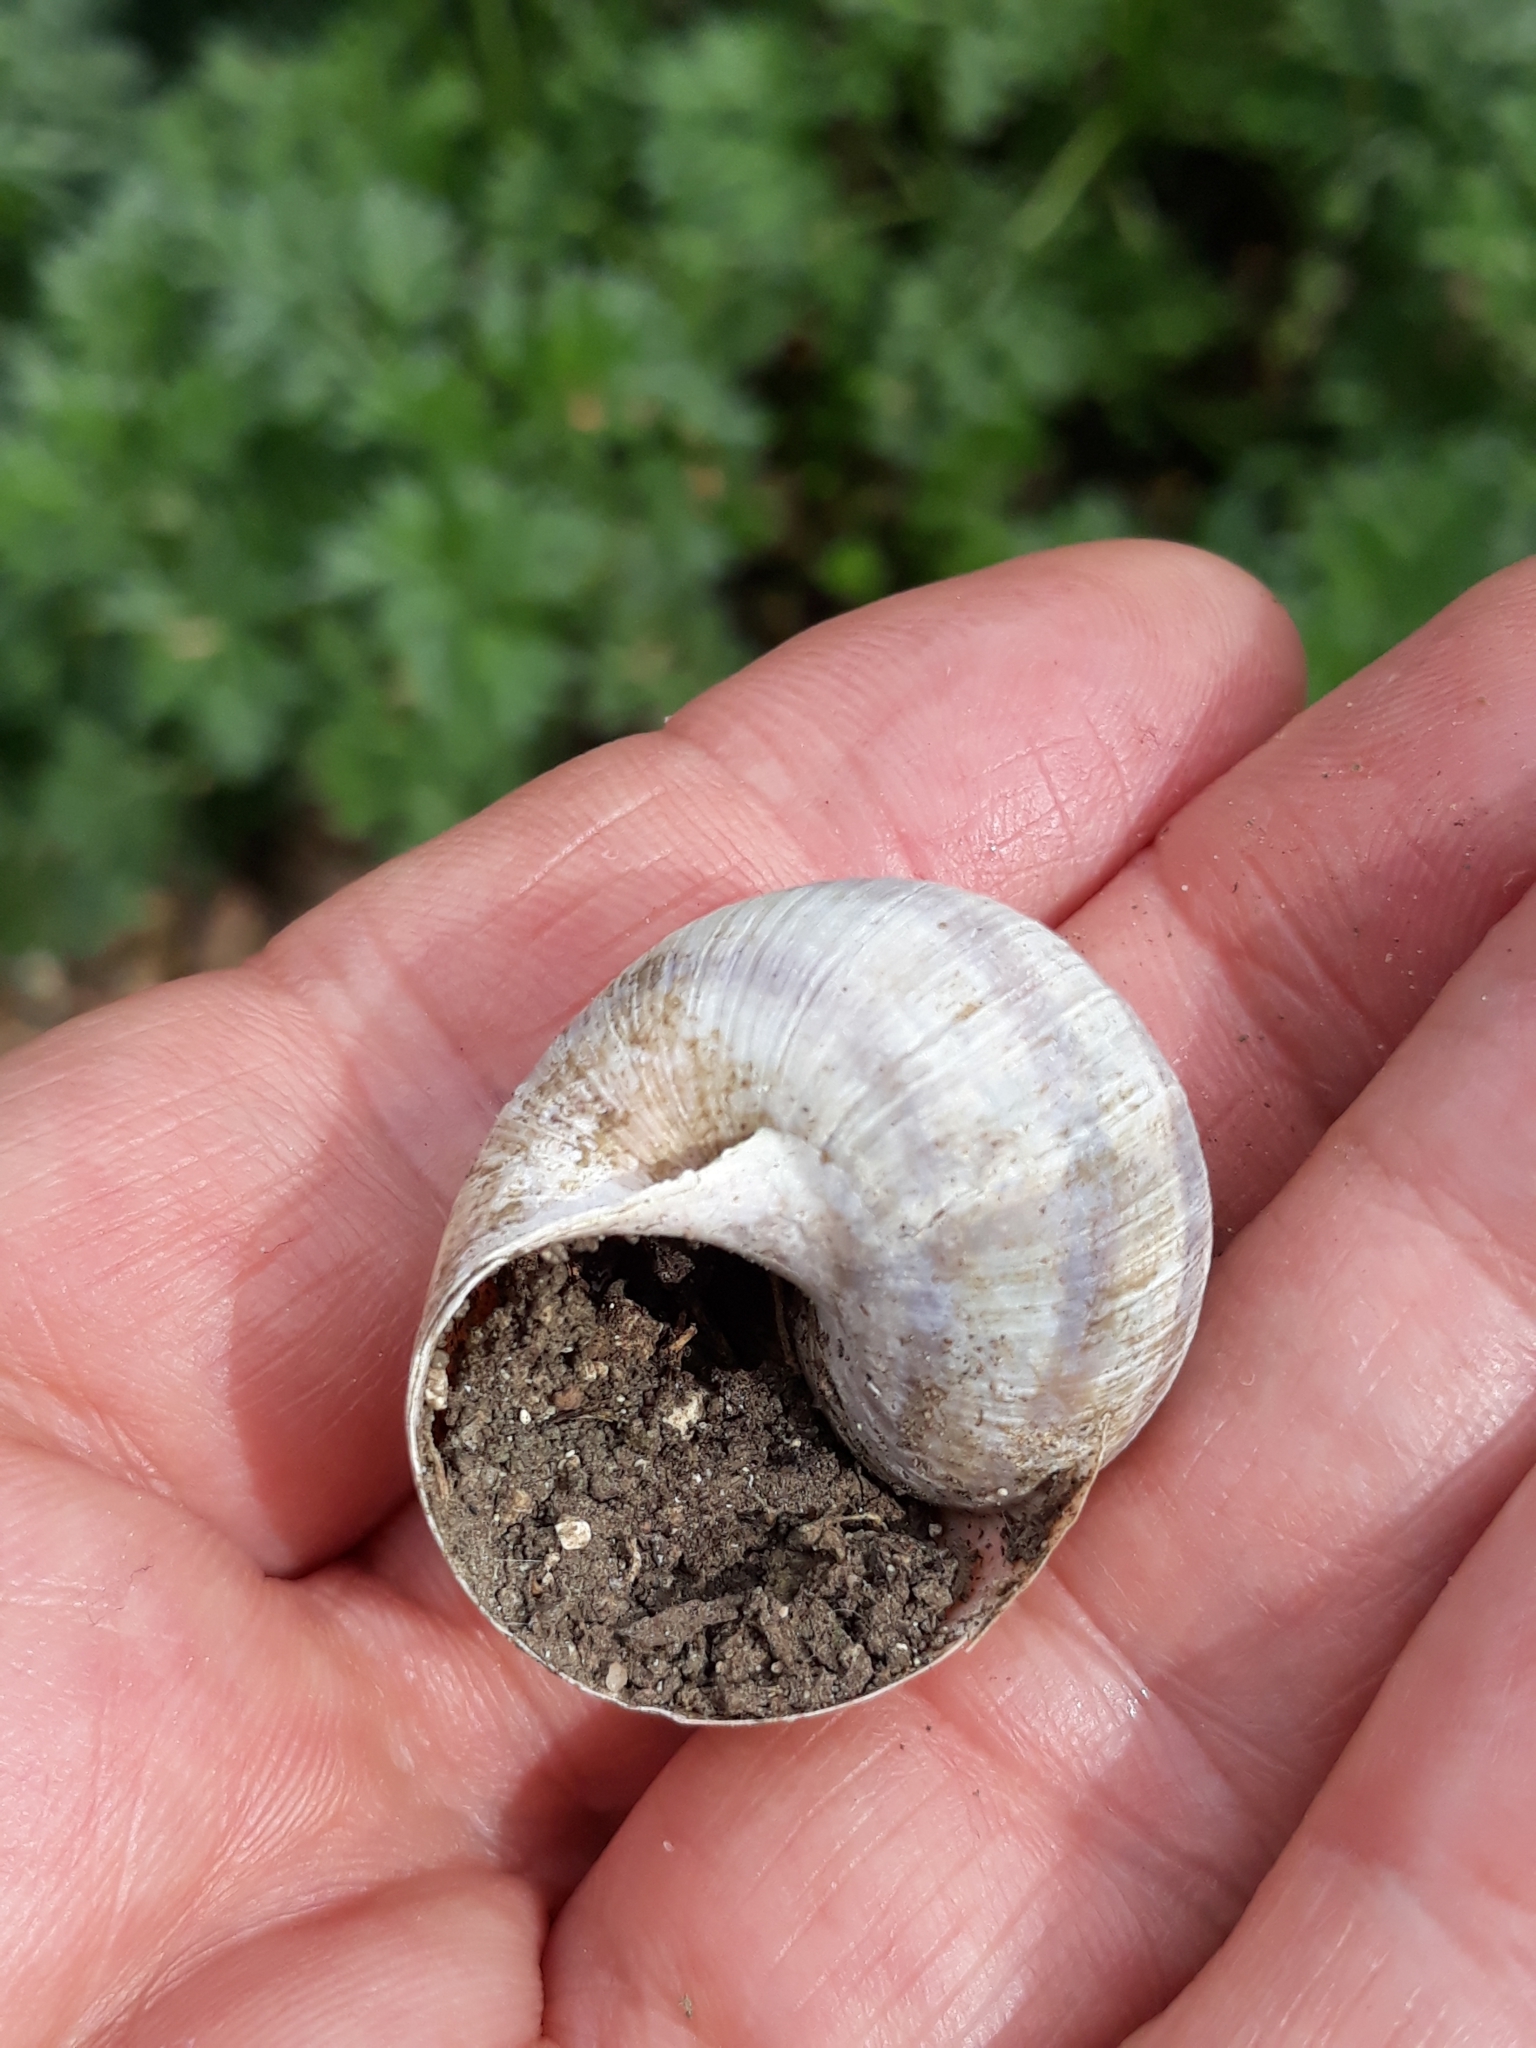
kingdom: Animalia
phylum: Mollusca
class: Gastropoda
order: Stylommatophora
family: Helicidae
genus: Helix
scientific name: Helix pomatia
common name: Roman snail
